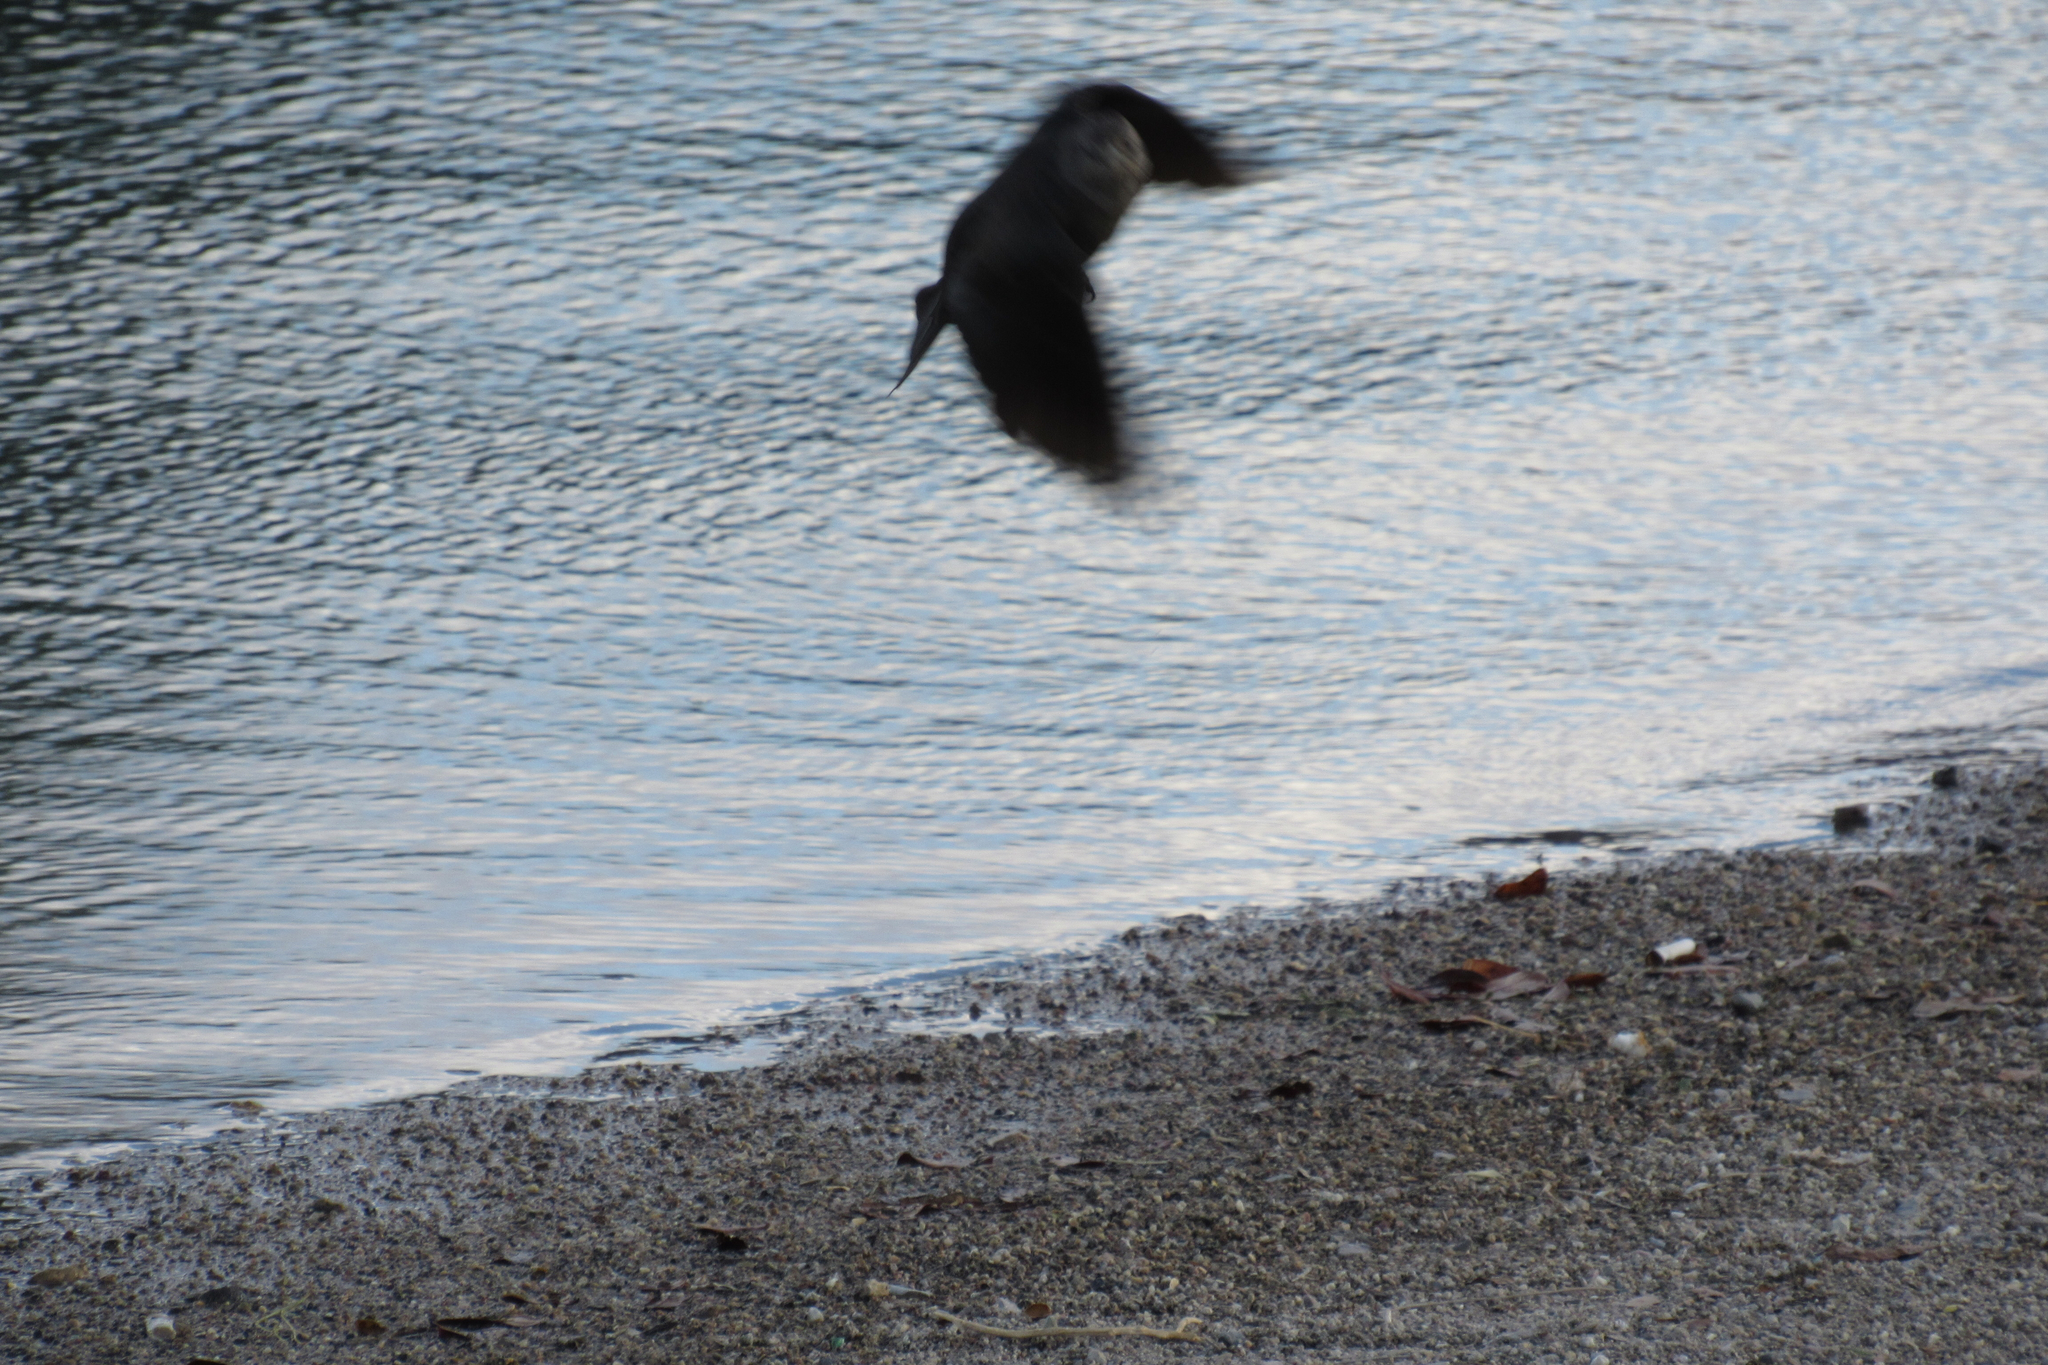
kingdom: Animalia
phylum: Chordata
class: Aves
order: Passeriformes
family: Icteridae
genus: Quiscalus
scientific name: Quiscalus mexicanus
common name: Great-tailed grackle
